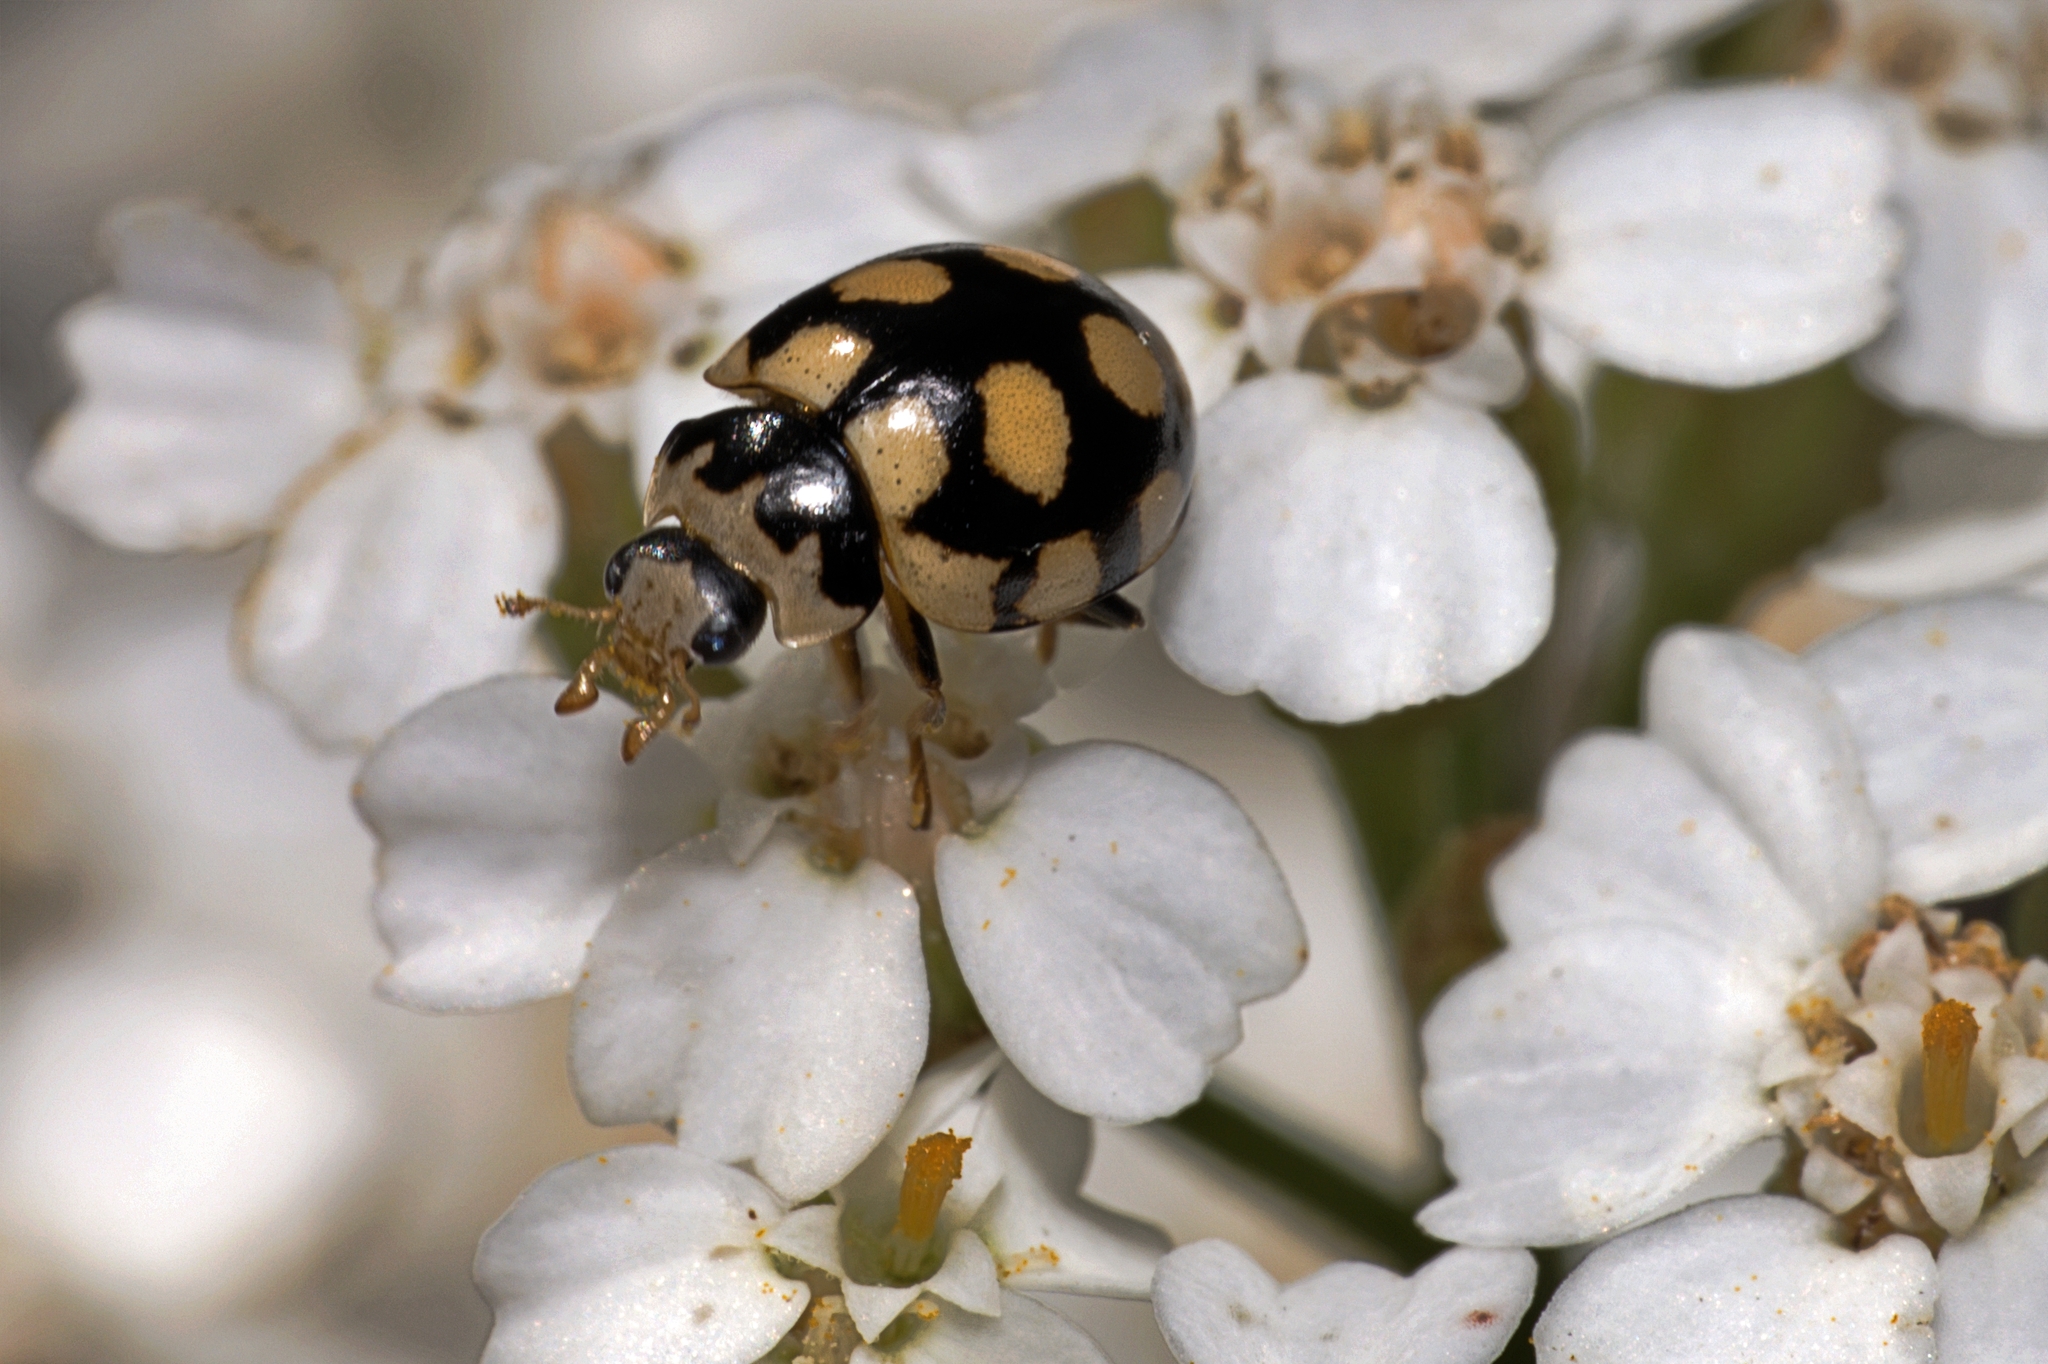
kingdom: Animalia
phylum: Arthropoda
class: Insecta
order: Coleoptera
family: Coccinellidae
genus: Coccinula
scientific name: Coccinula quatuordecimpustulata
